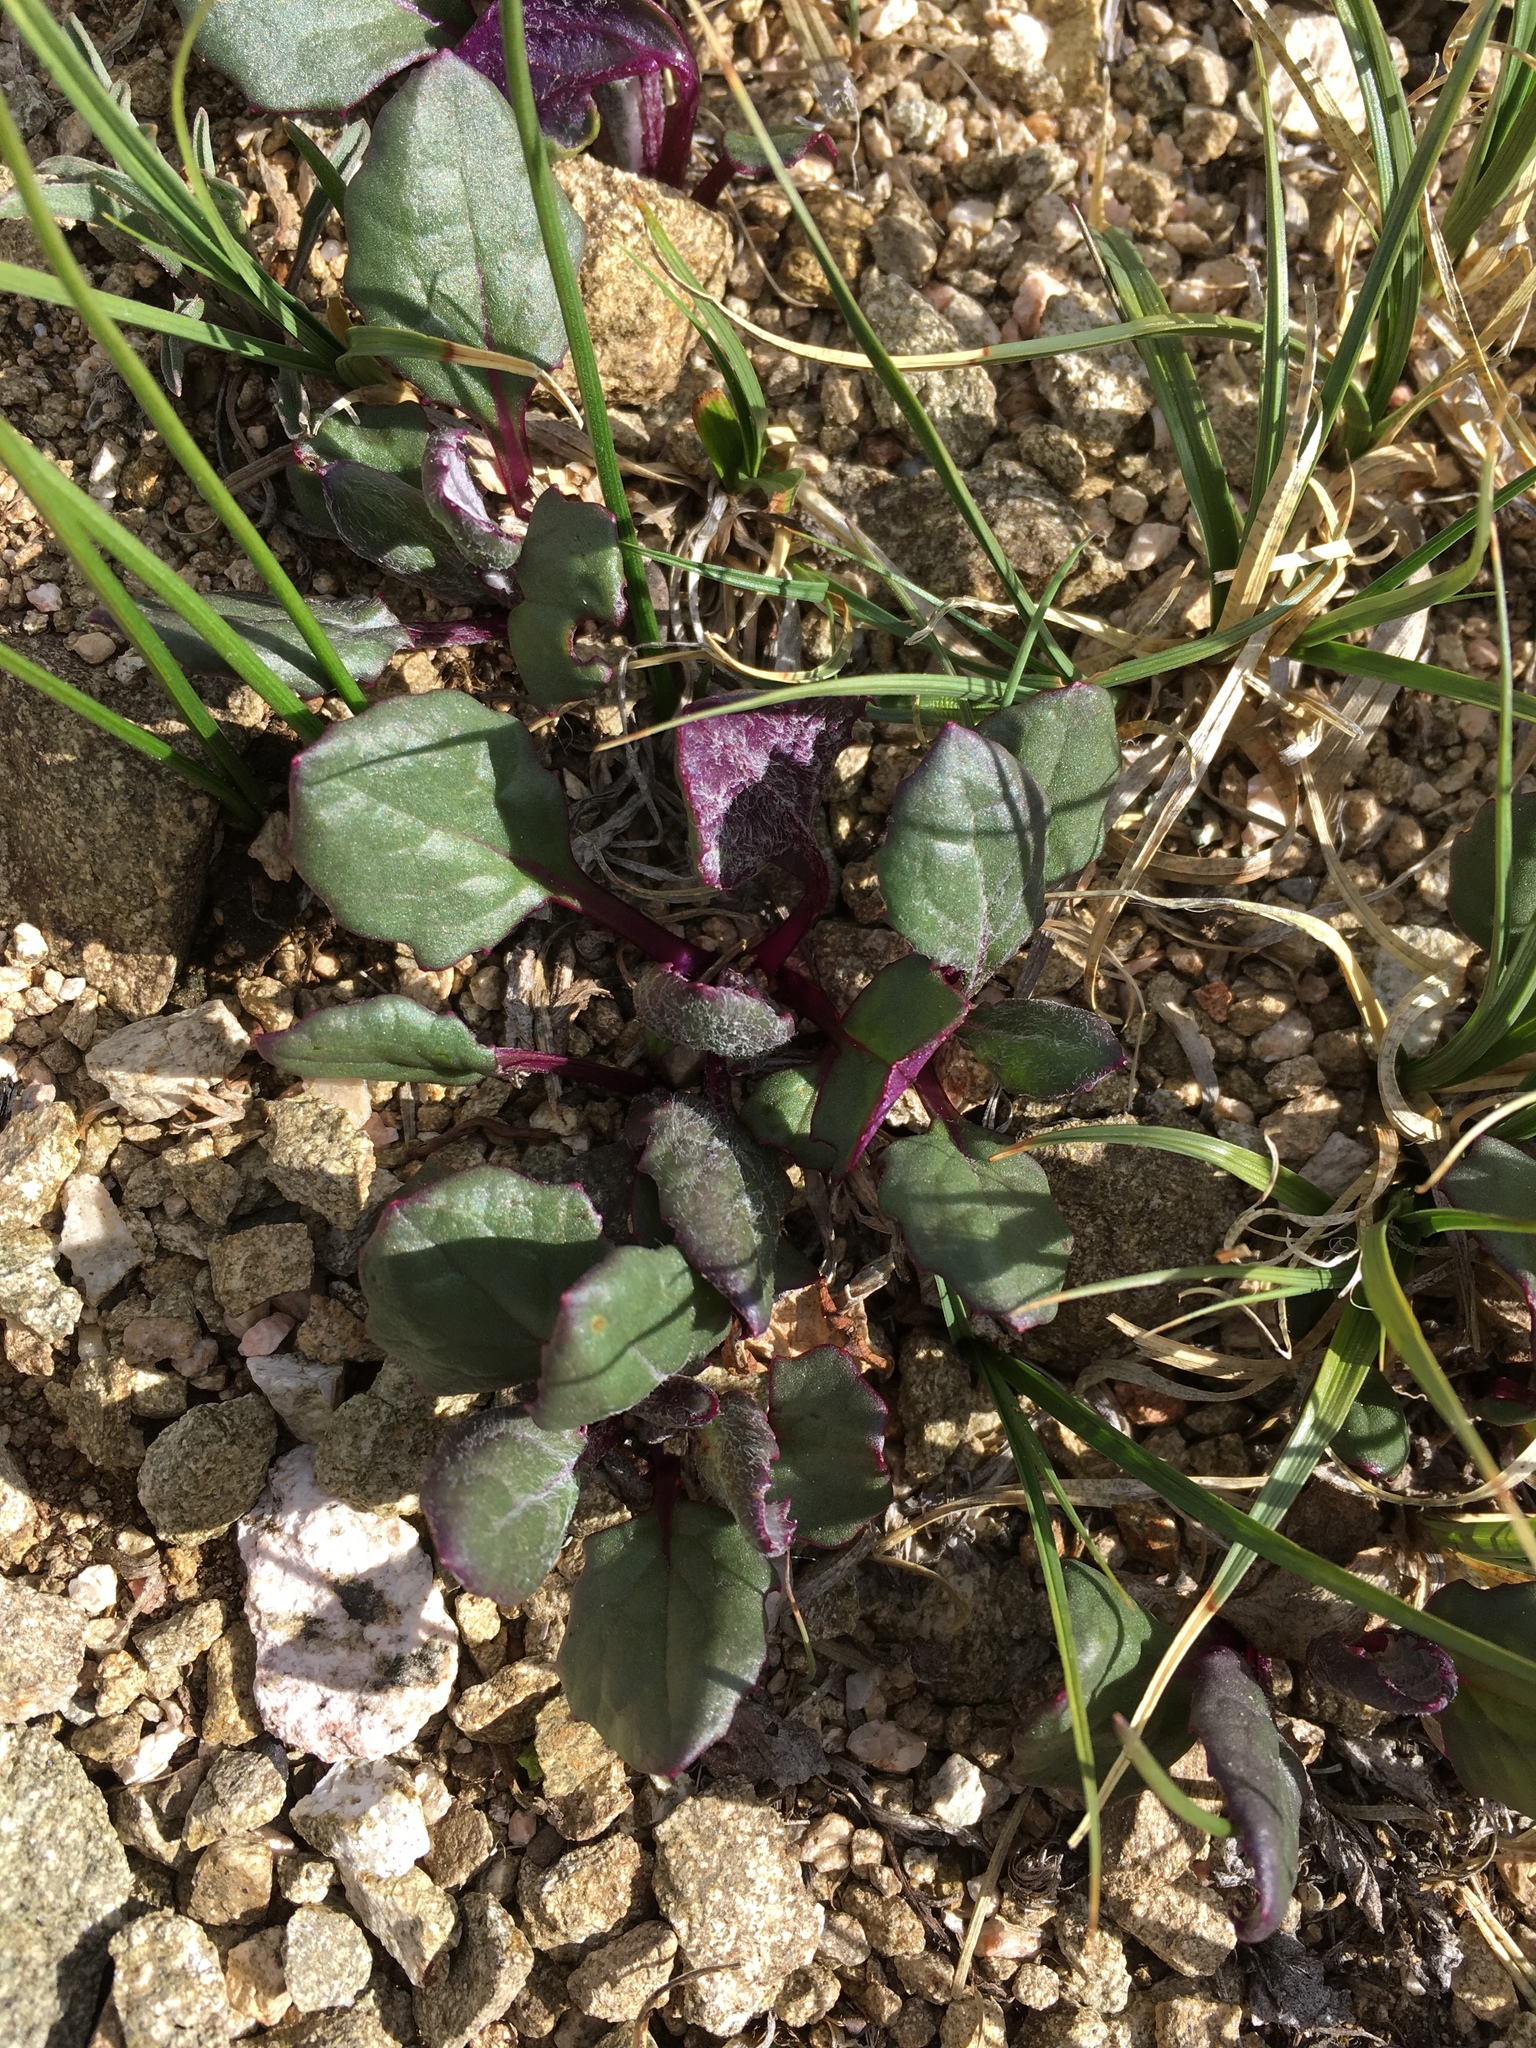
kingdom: Plantae
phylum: Tracheophyta
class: Magnoliopsida
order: Asterales
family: Asteraceae
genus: Senecio
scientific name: Senecio taraxacoides
